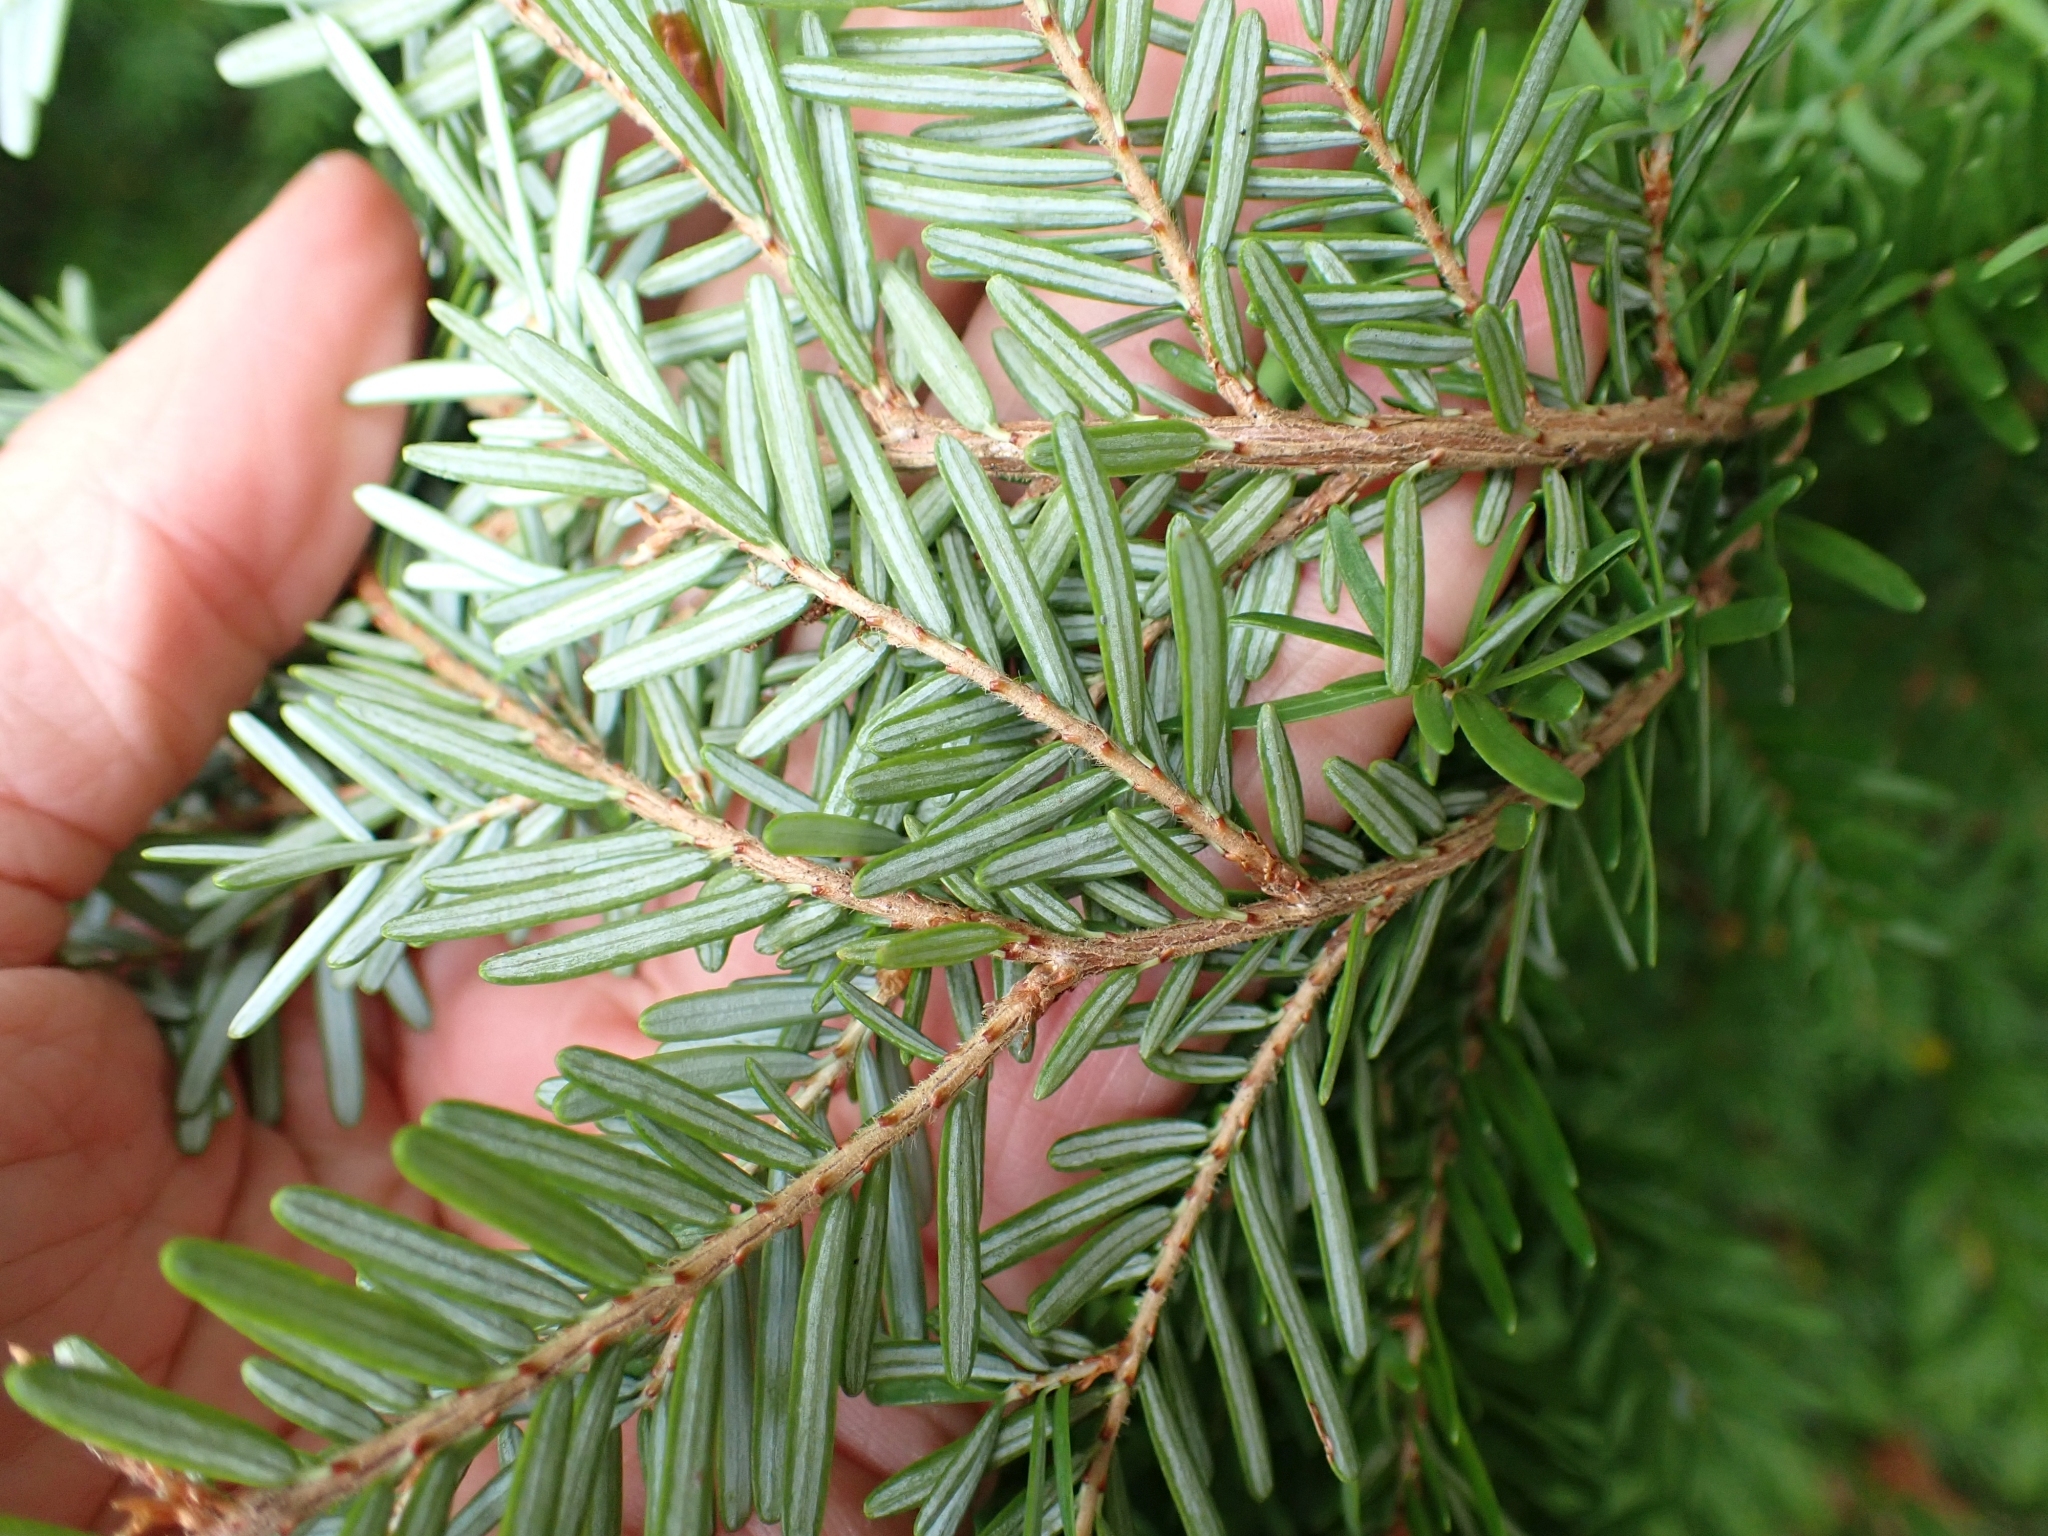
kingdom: Plantae
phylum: Tracheophyta
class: Pinopsida
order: Pinales
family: Pinaceae
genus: Tsuga
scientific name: Tsuga heterophylla
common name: Western hemlock
